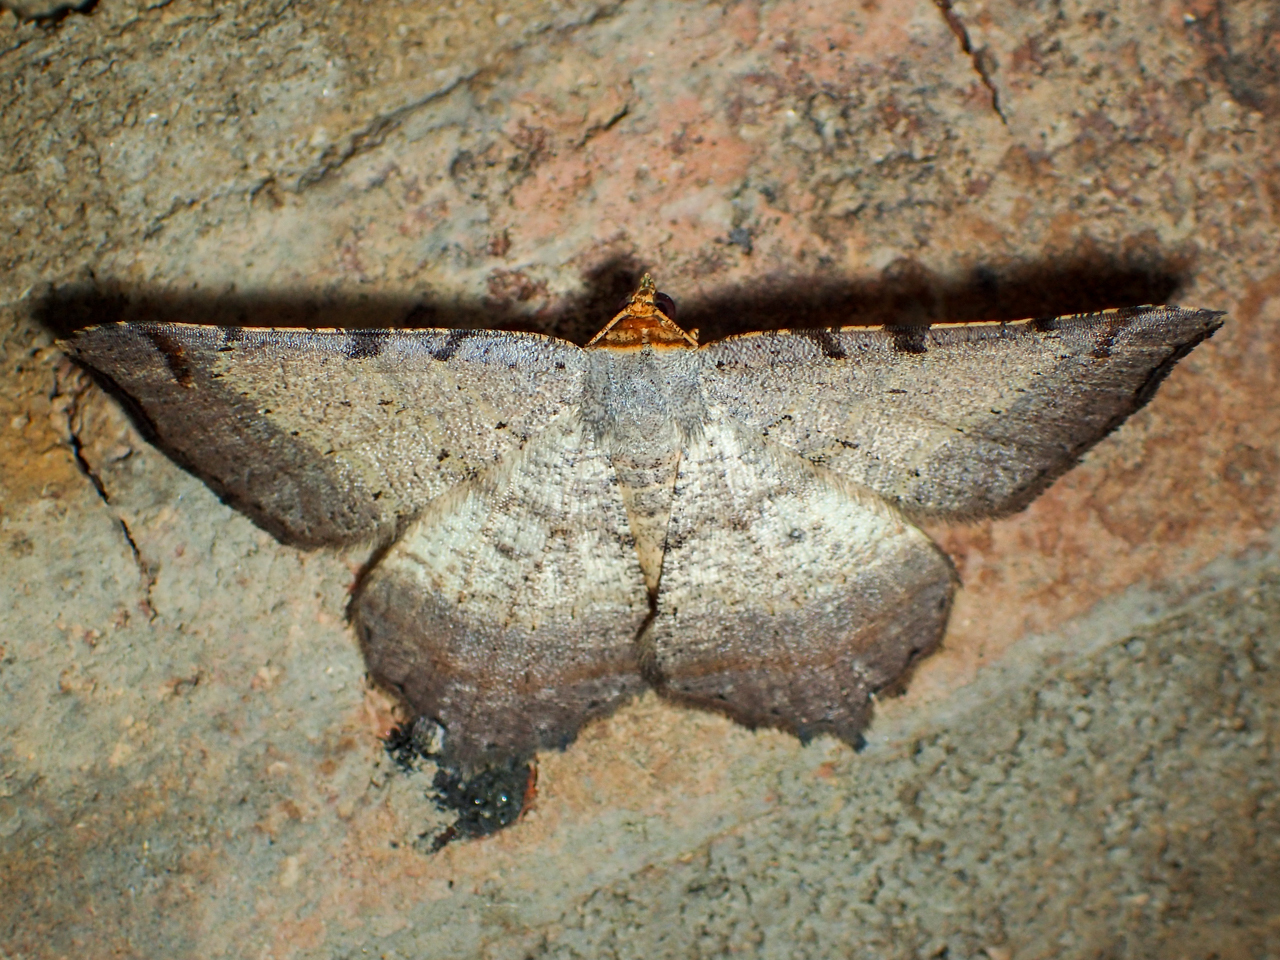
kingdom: Animalia
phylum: Arthropoda
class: Insecta
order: Lepidoptera
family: Geometridae
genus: Macaria
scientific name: Macaria bicolorata
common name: Dingy angle
